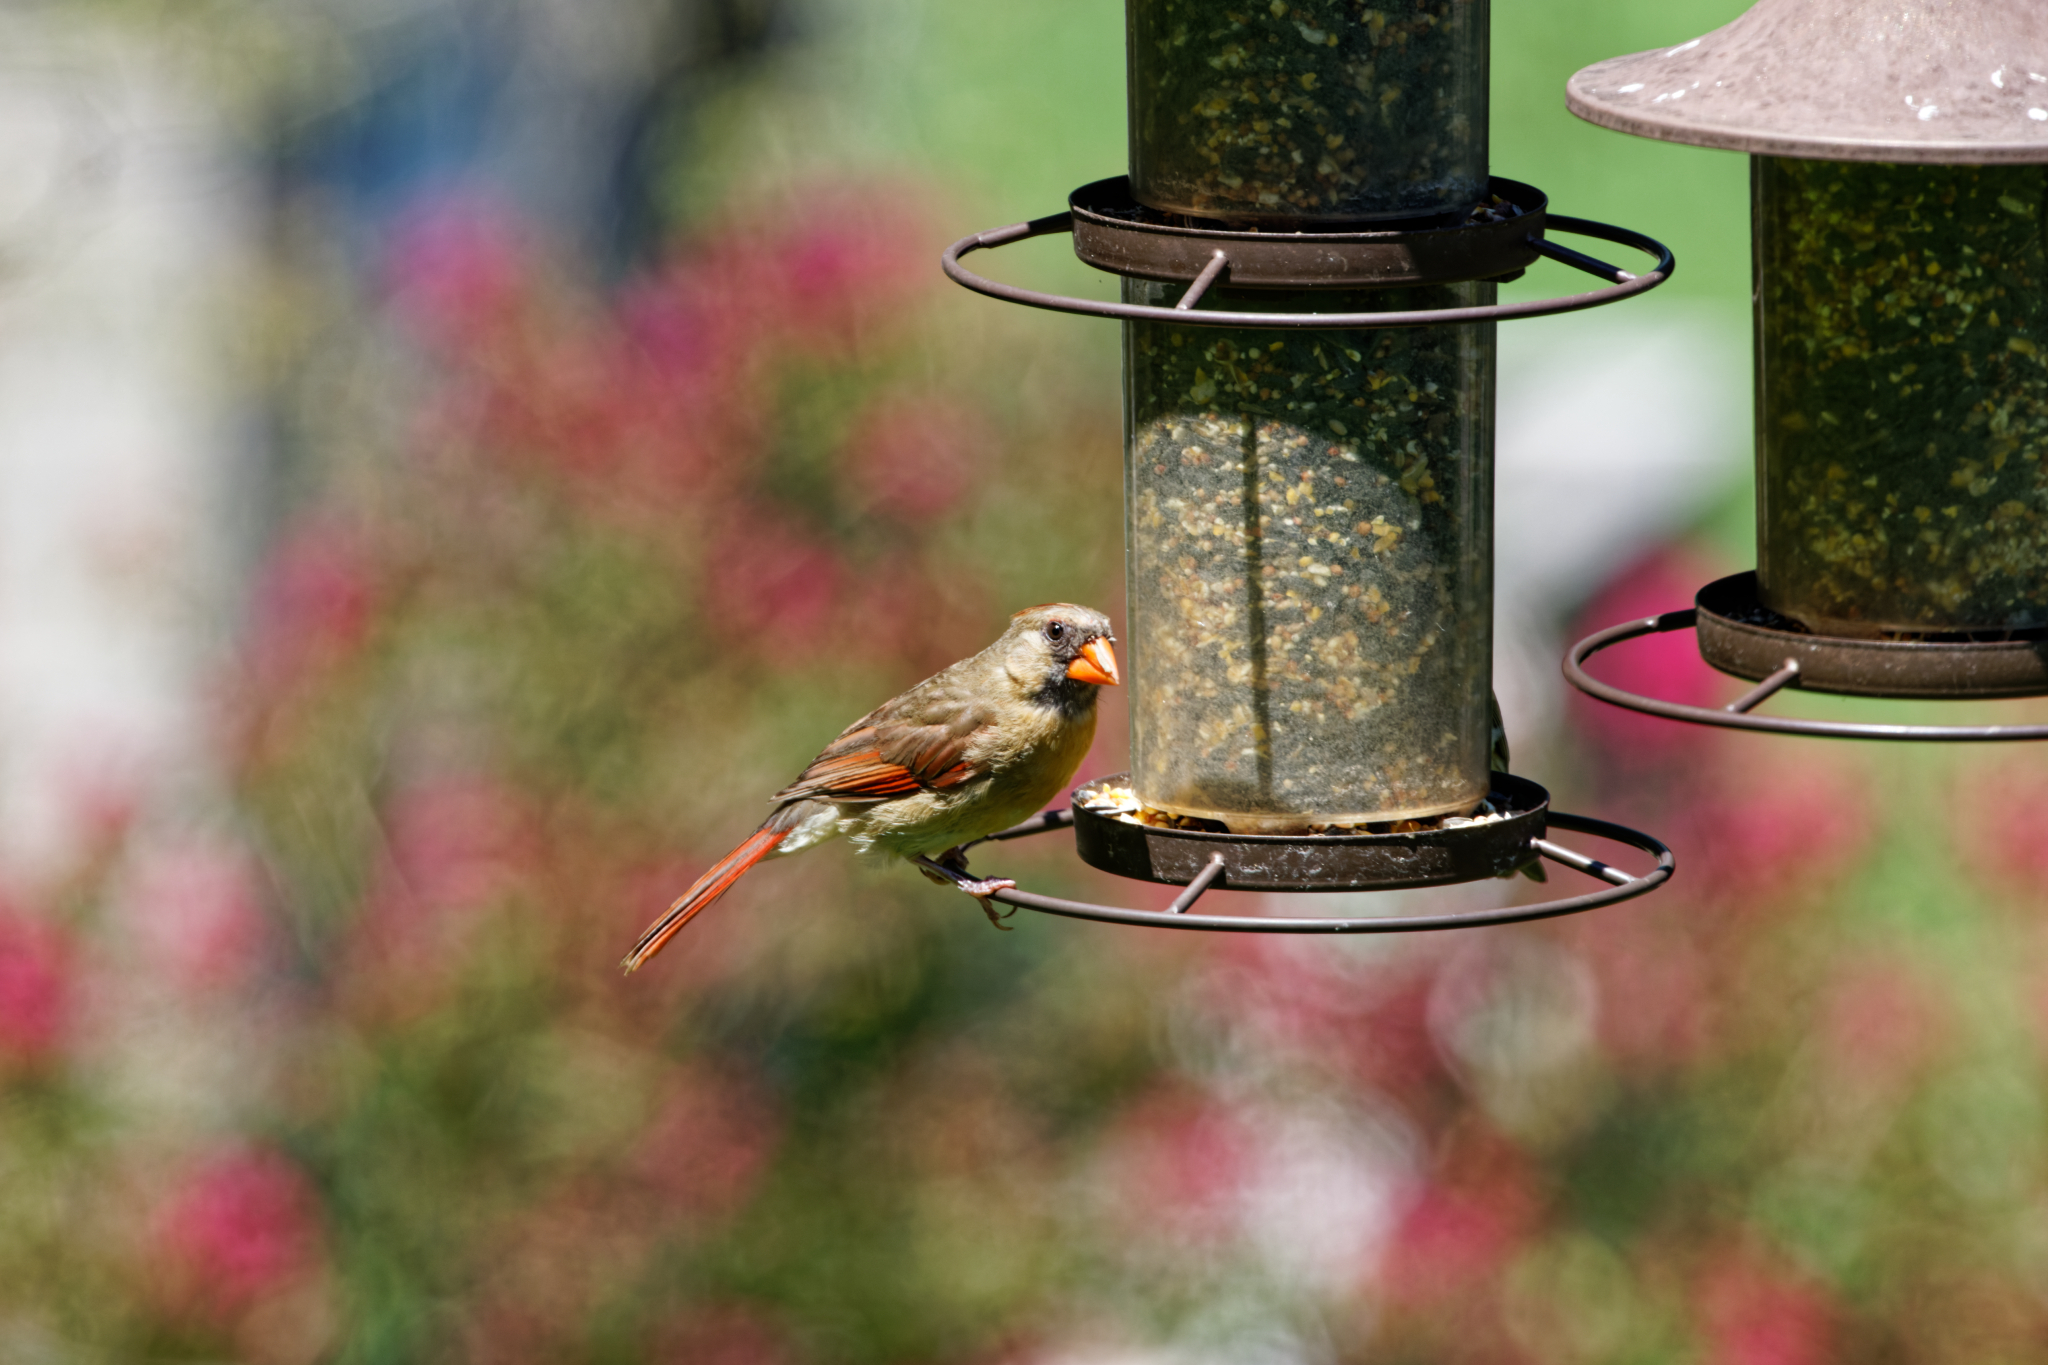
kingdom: Animalia
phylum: Chordata
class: Aves
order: Passeriformes
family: Cardinalidae
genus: Cardinalis
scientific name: Cardinalis cardinalis
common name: Northern cardinal
